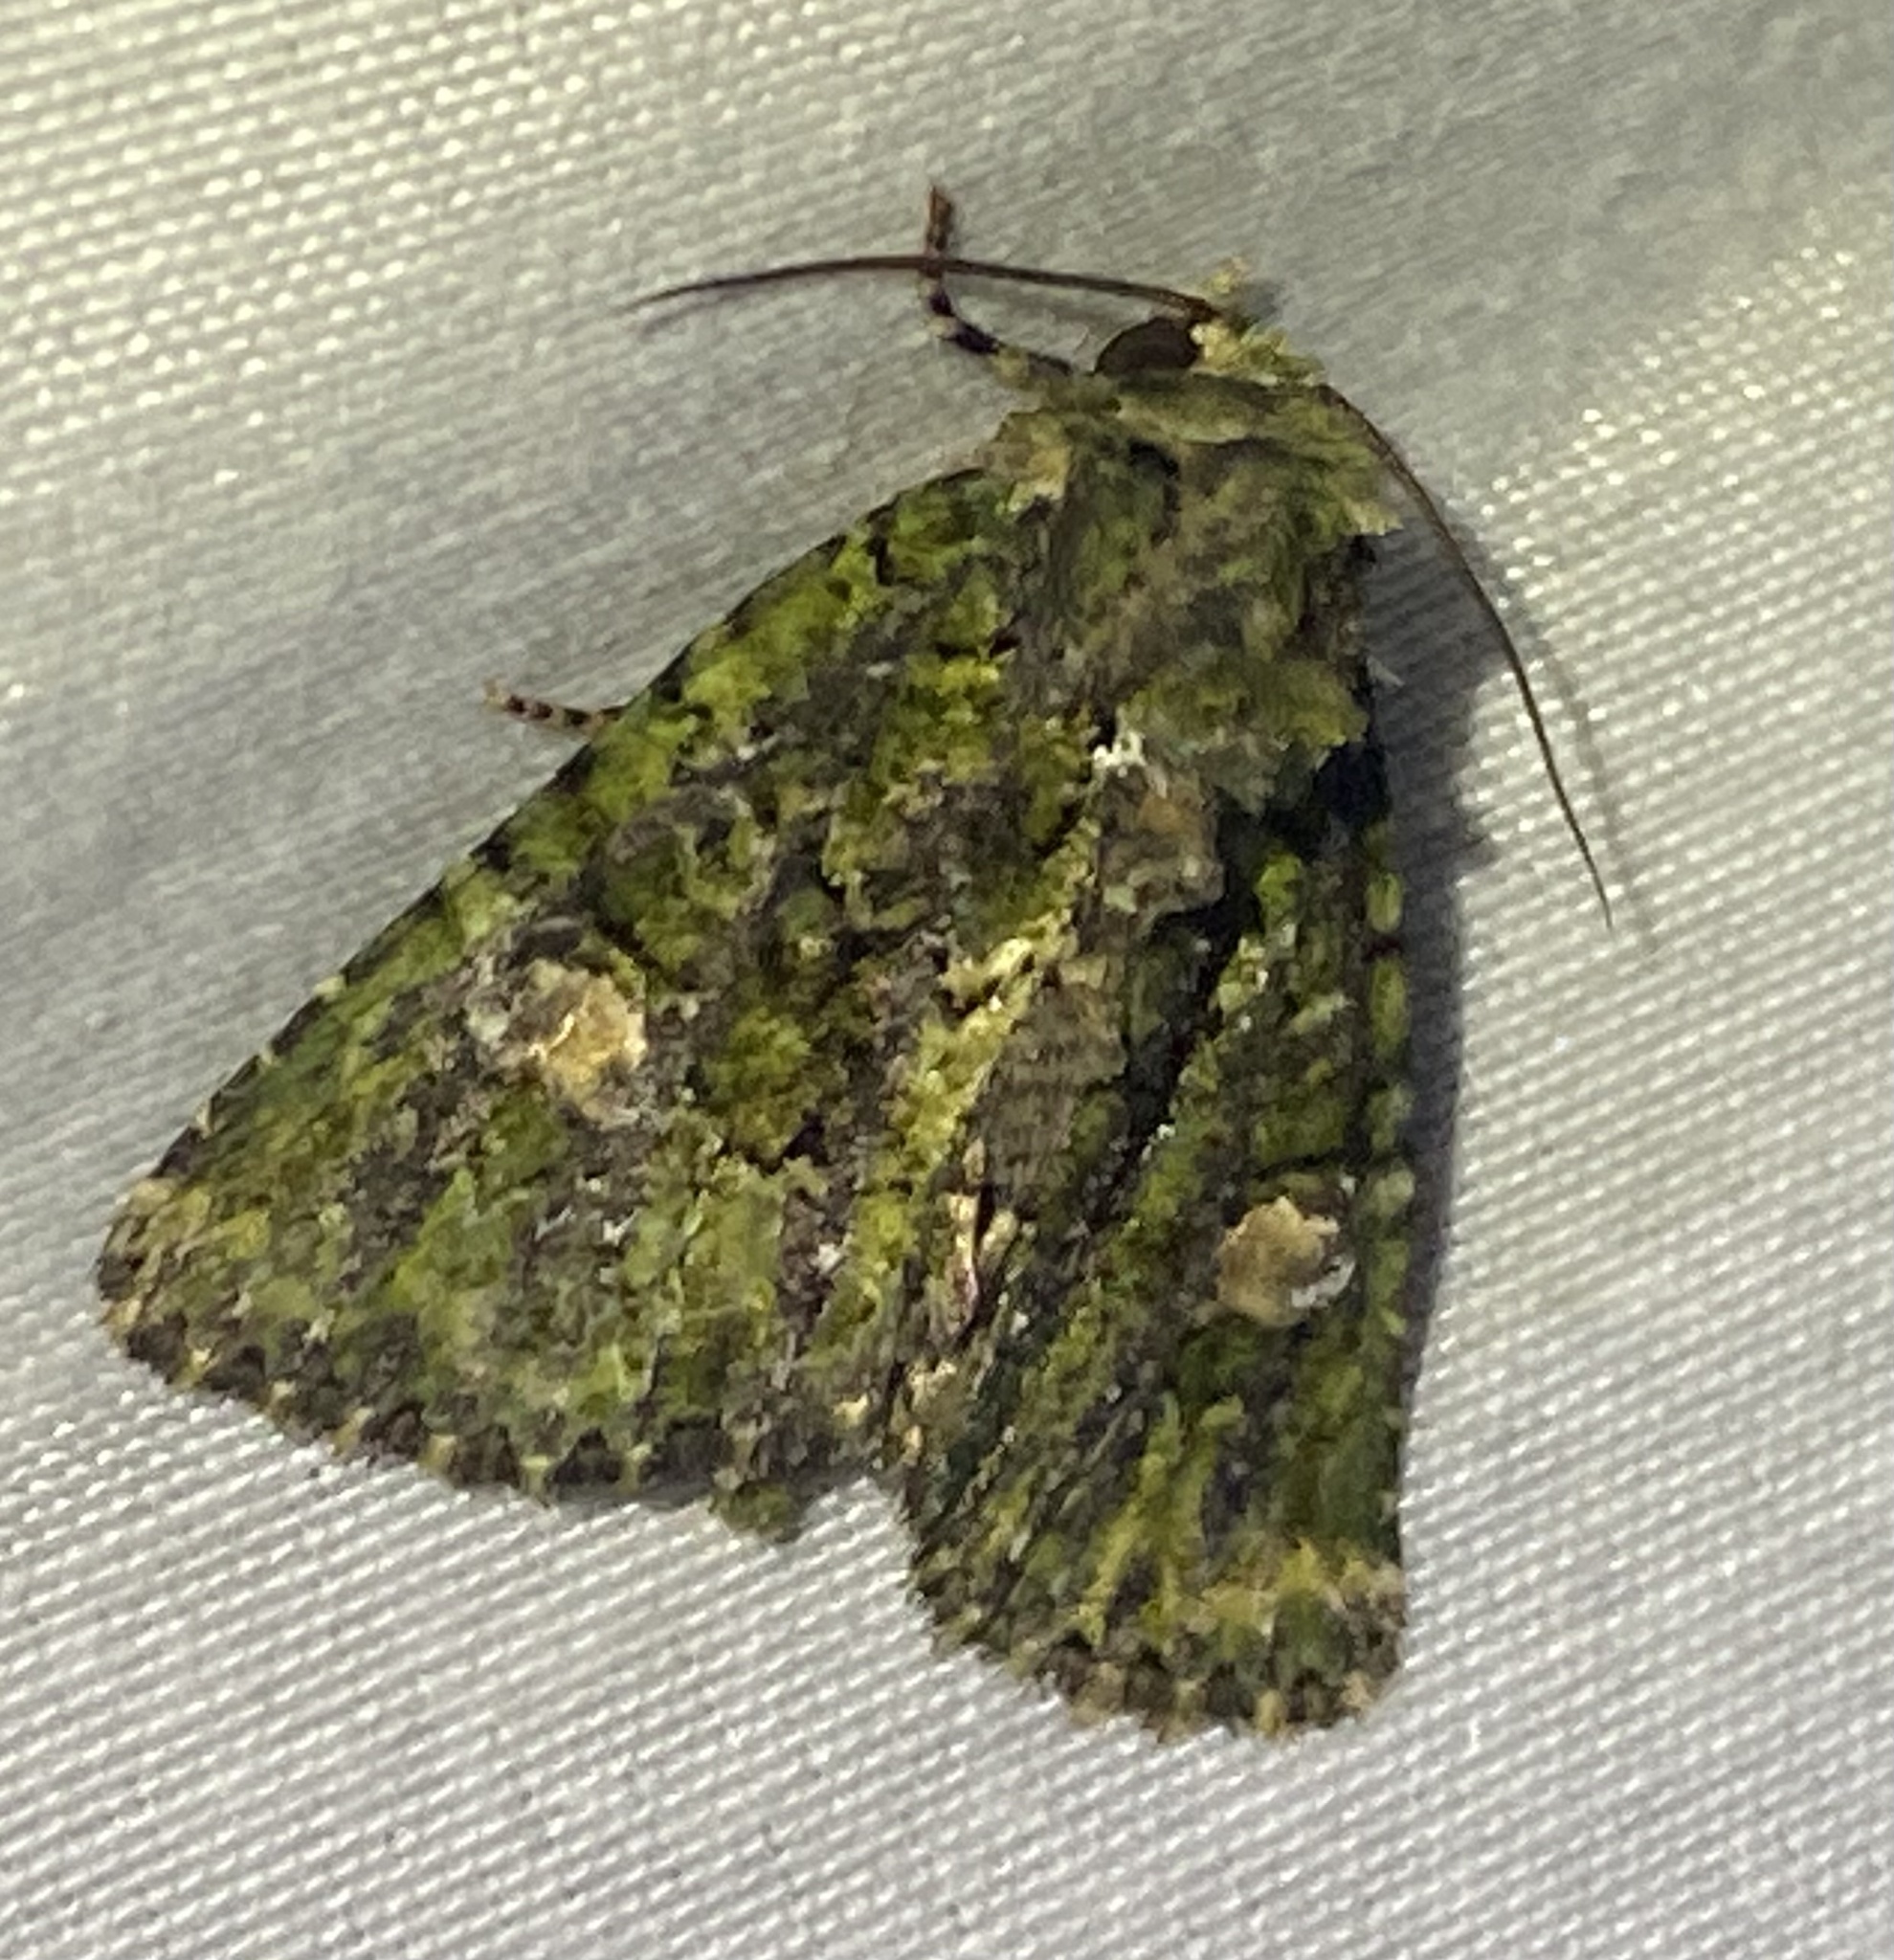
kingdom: Animalia
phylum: Arthropoda
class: Insecta
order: Lepidoptera
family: Noctuidae
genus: Phosphila
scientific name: Phosphila miselioides
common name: Spotted phosphila moth
